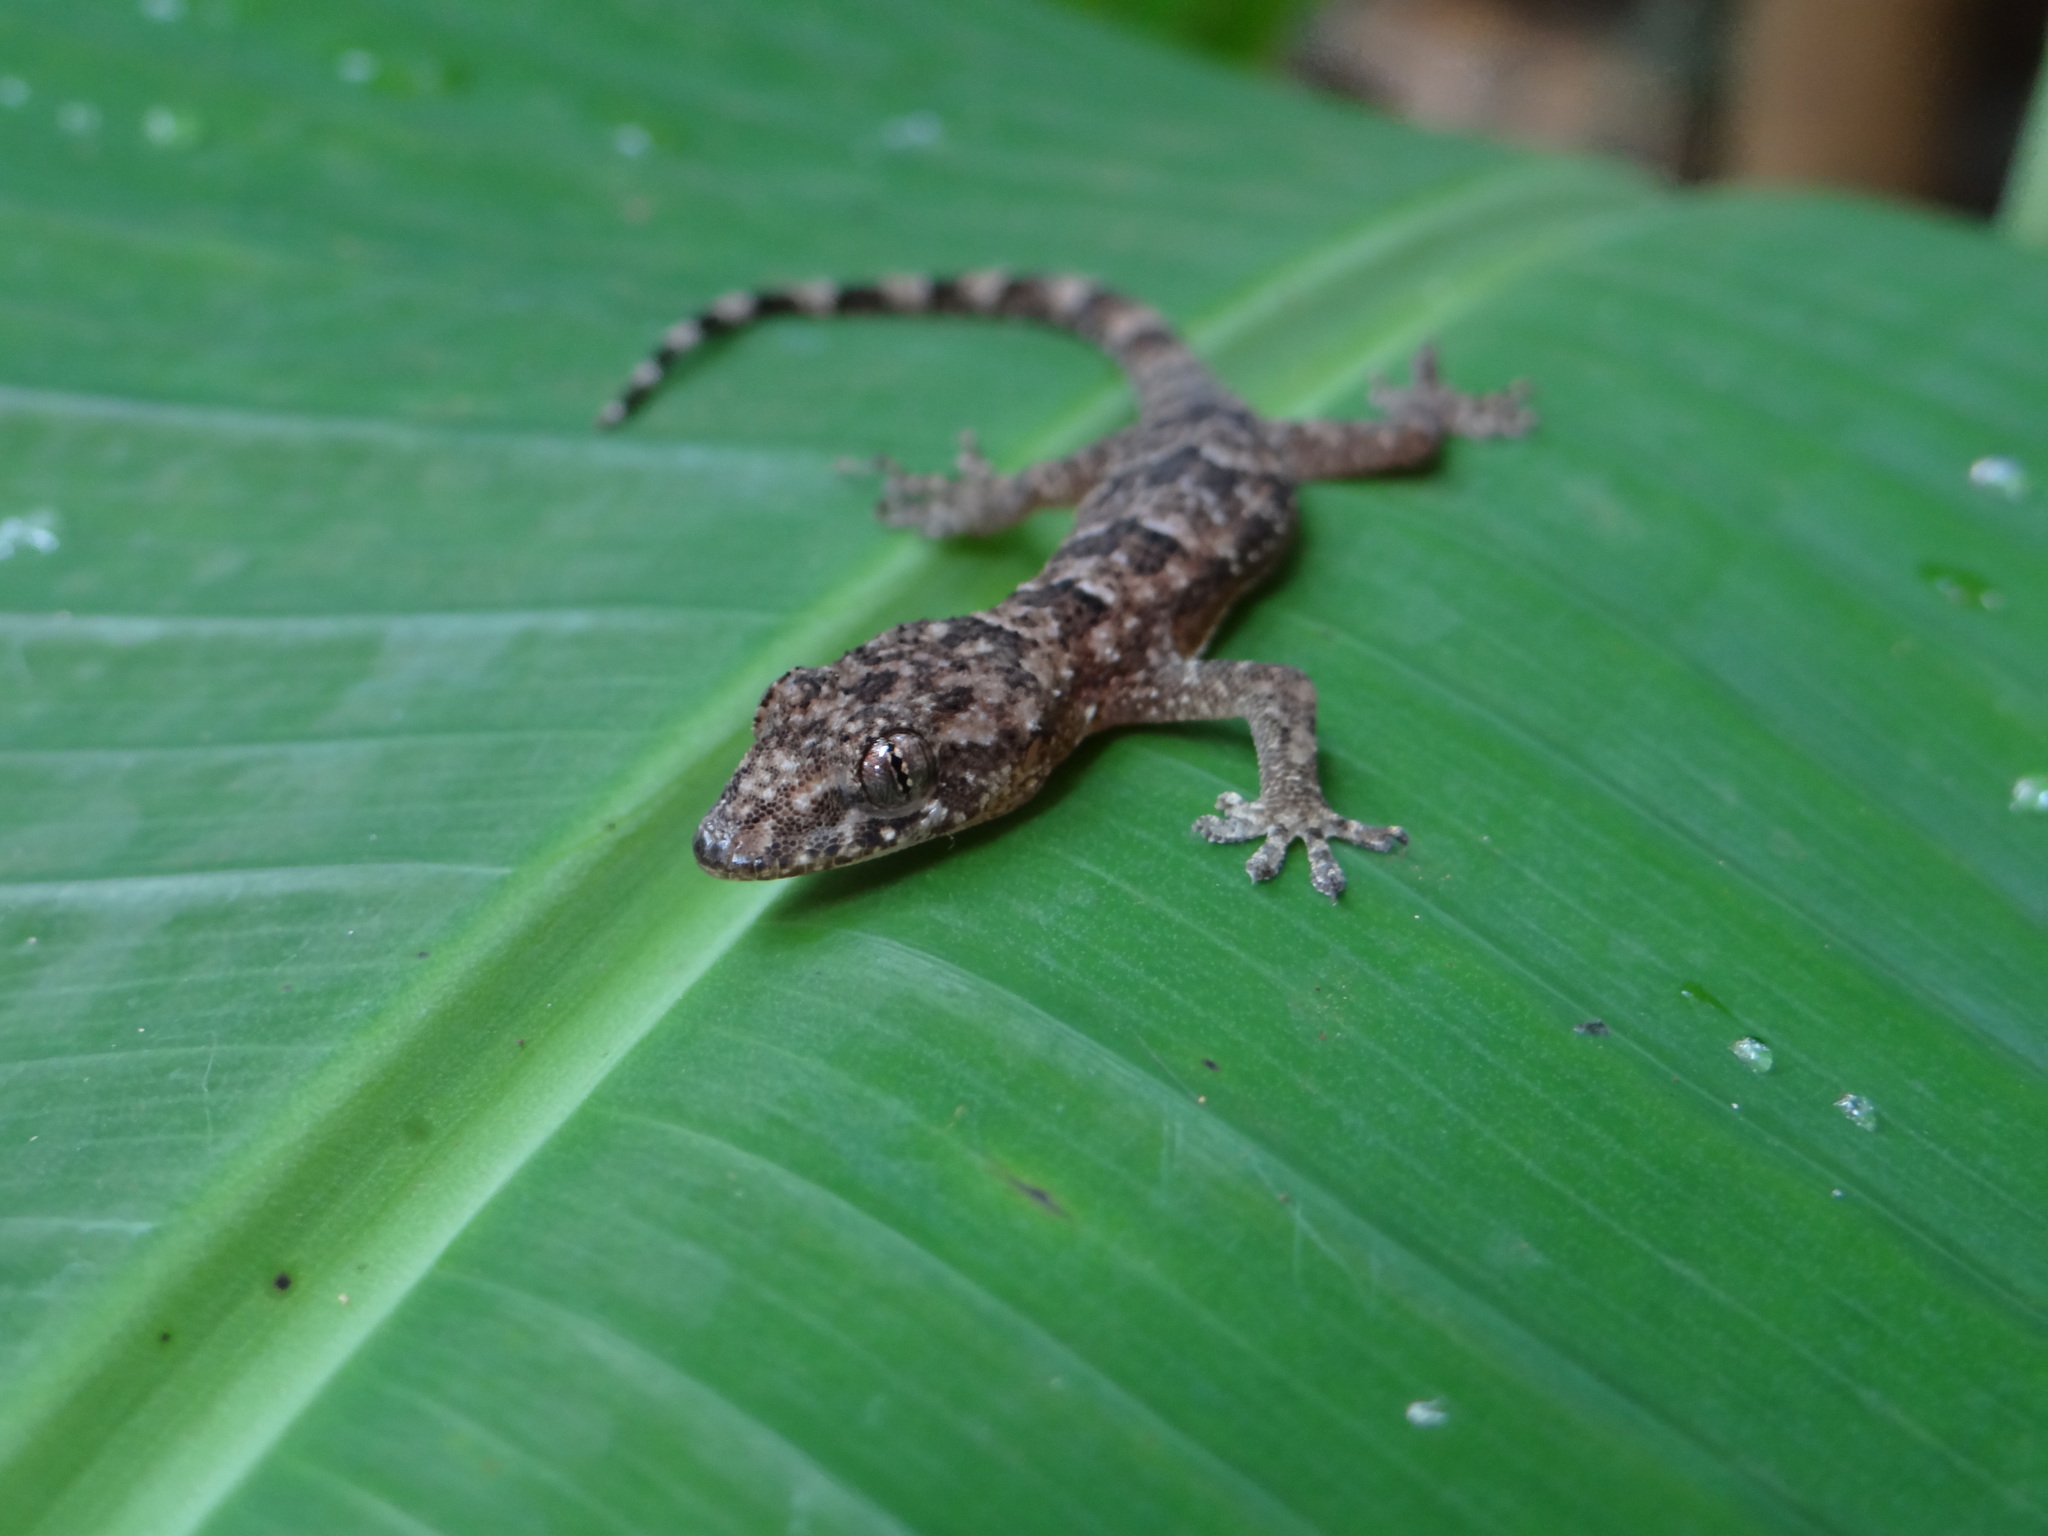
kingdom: Animalia
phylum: Chordata
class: Squamata
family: Gekkonidae
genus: Hemidactylus
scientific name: Hemidactylus mabouia
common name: House gecko
